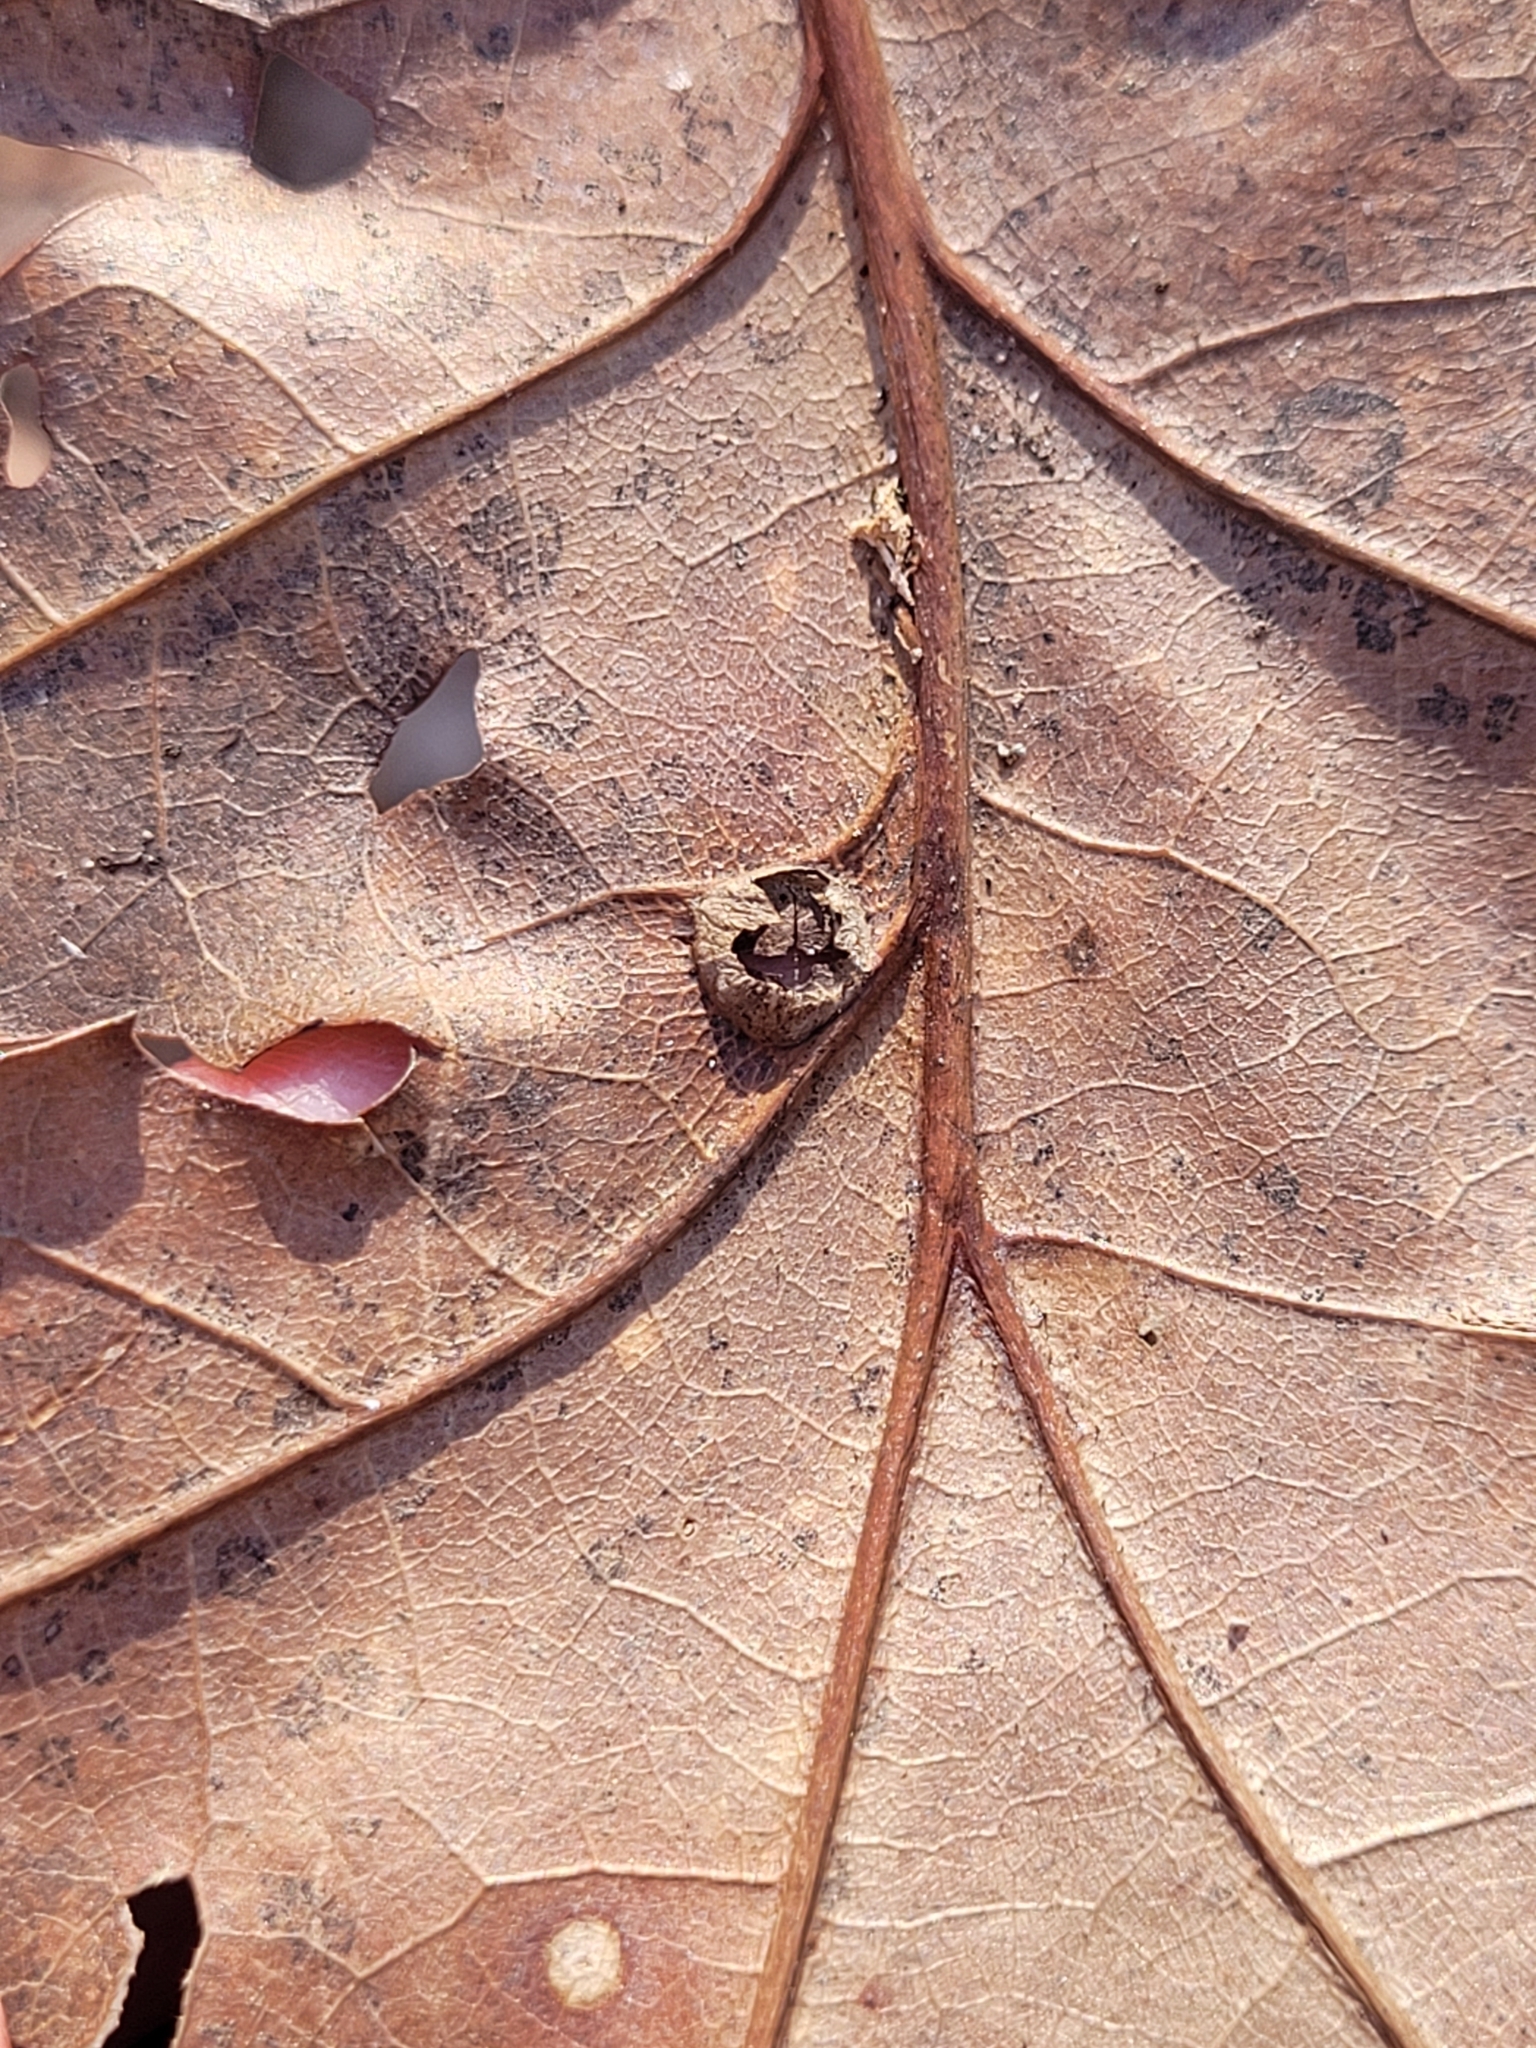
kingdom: Animalia
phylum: Arthropoda
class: Insecta
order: Hymenoptera
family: Cynipidae
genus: Dryocosmus
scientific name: Dryocosmus
